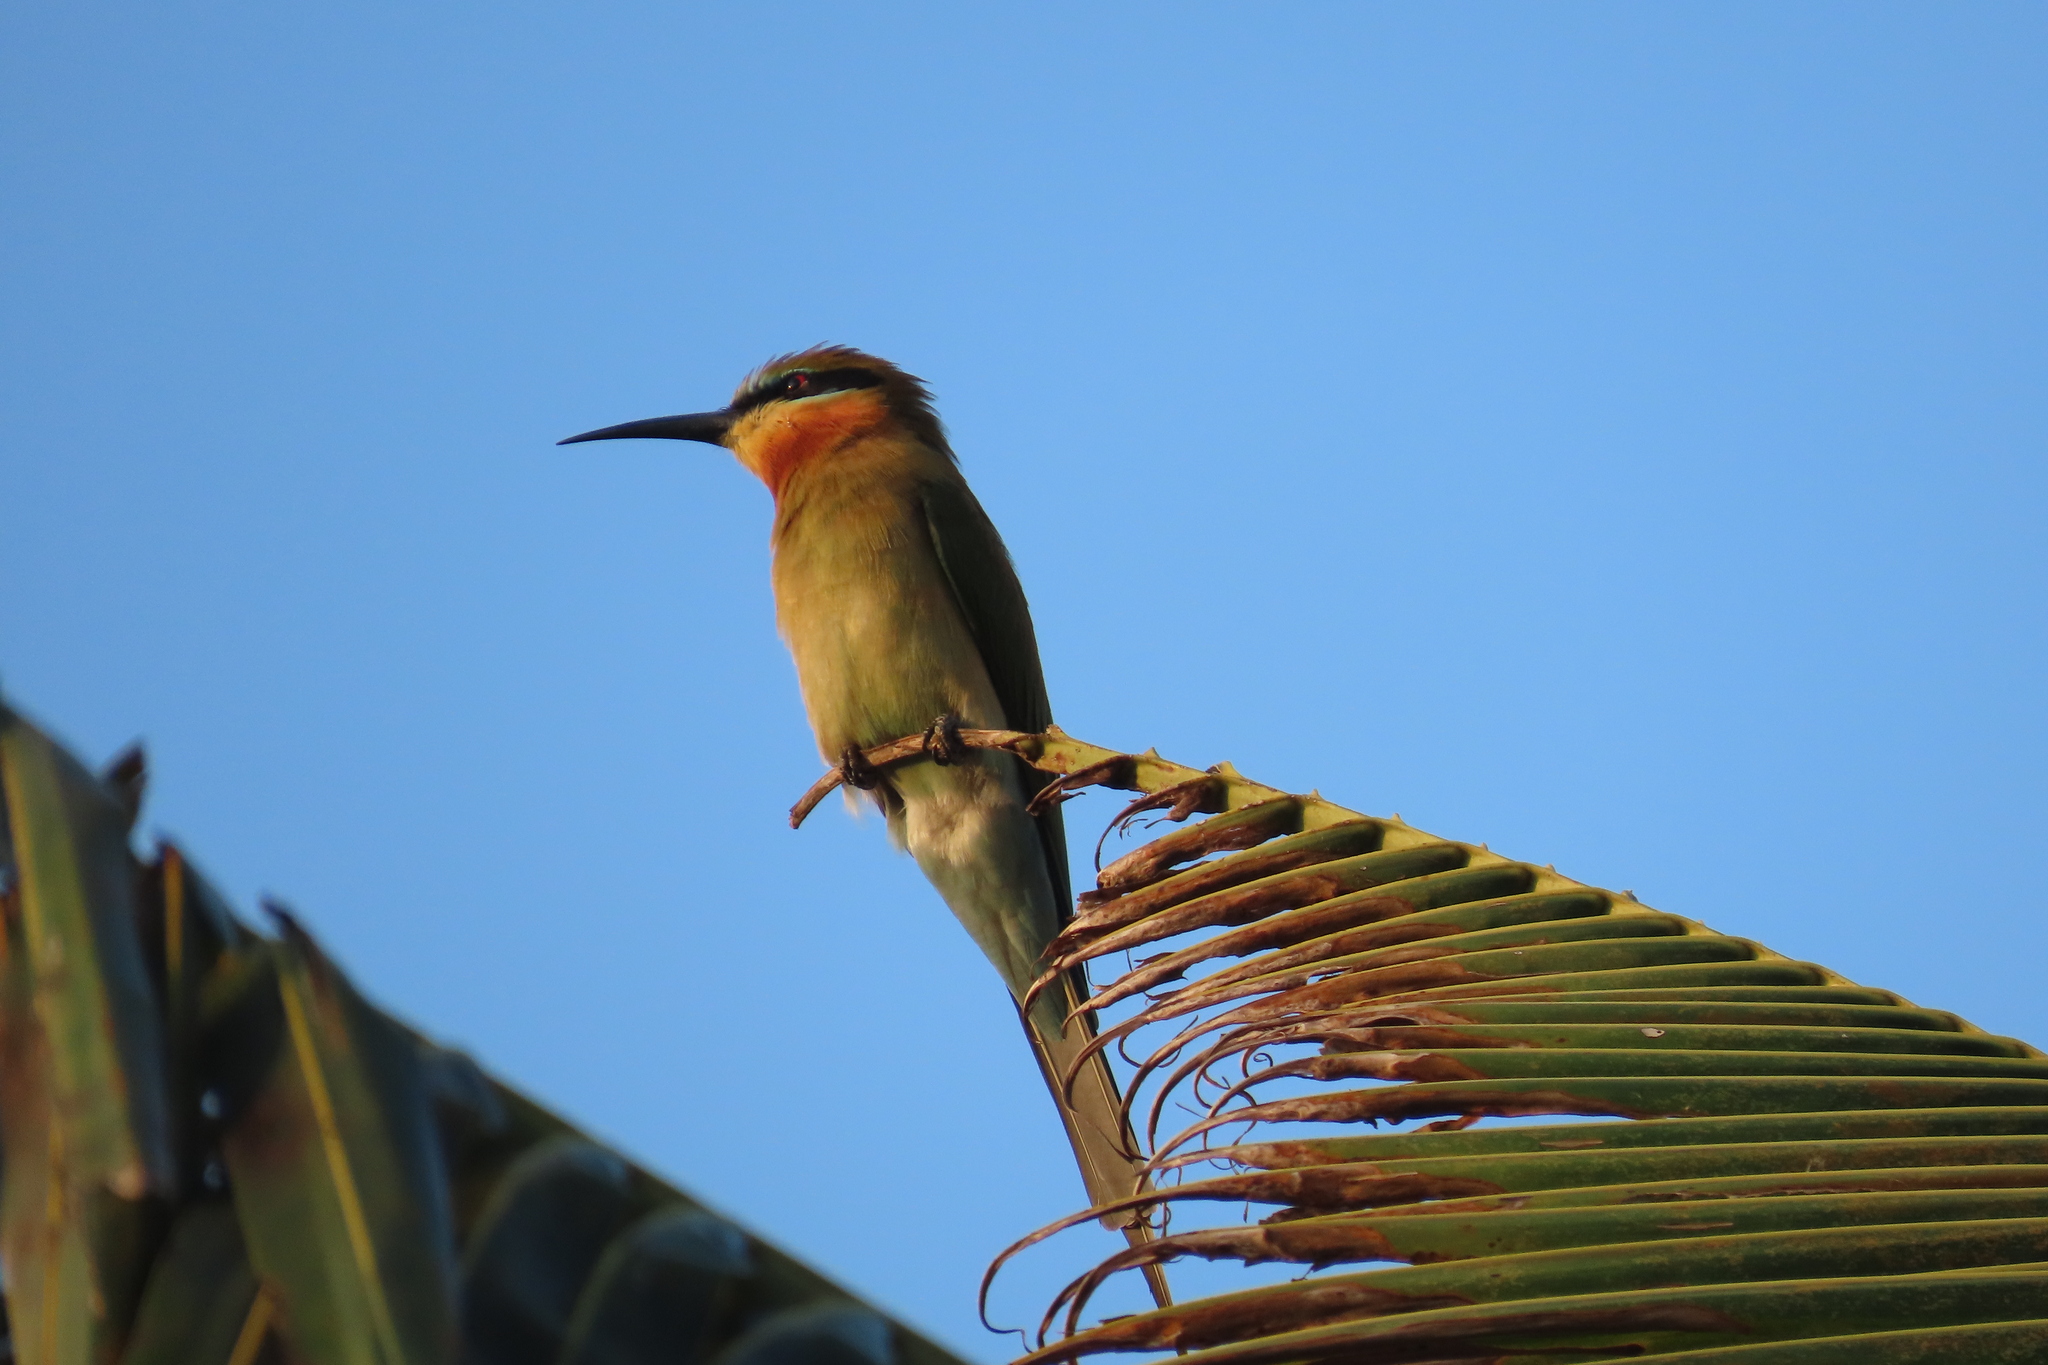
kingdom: Animalia
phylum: Chordata
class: Aves
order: Coraciiformes
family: Meropidae
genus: Merops
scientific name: Merops philippinus
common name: Blue-tailed bee-eater
